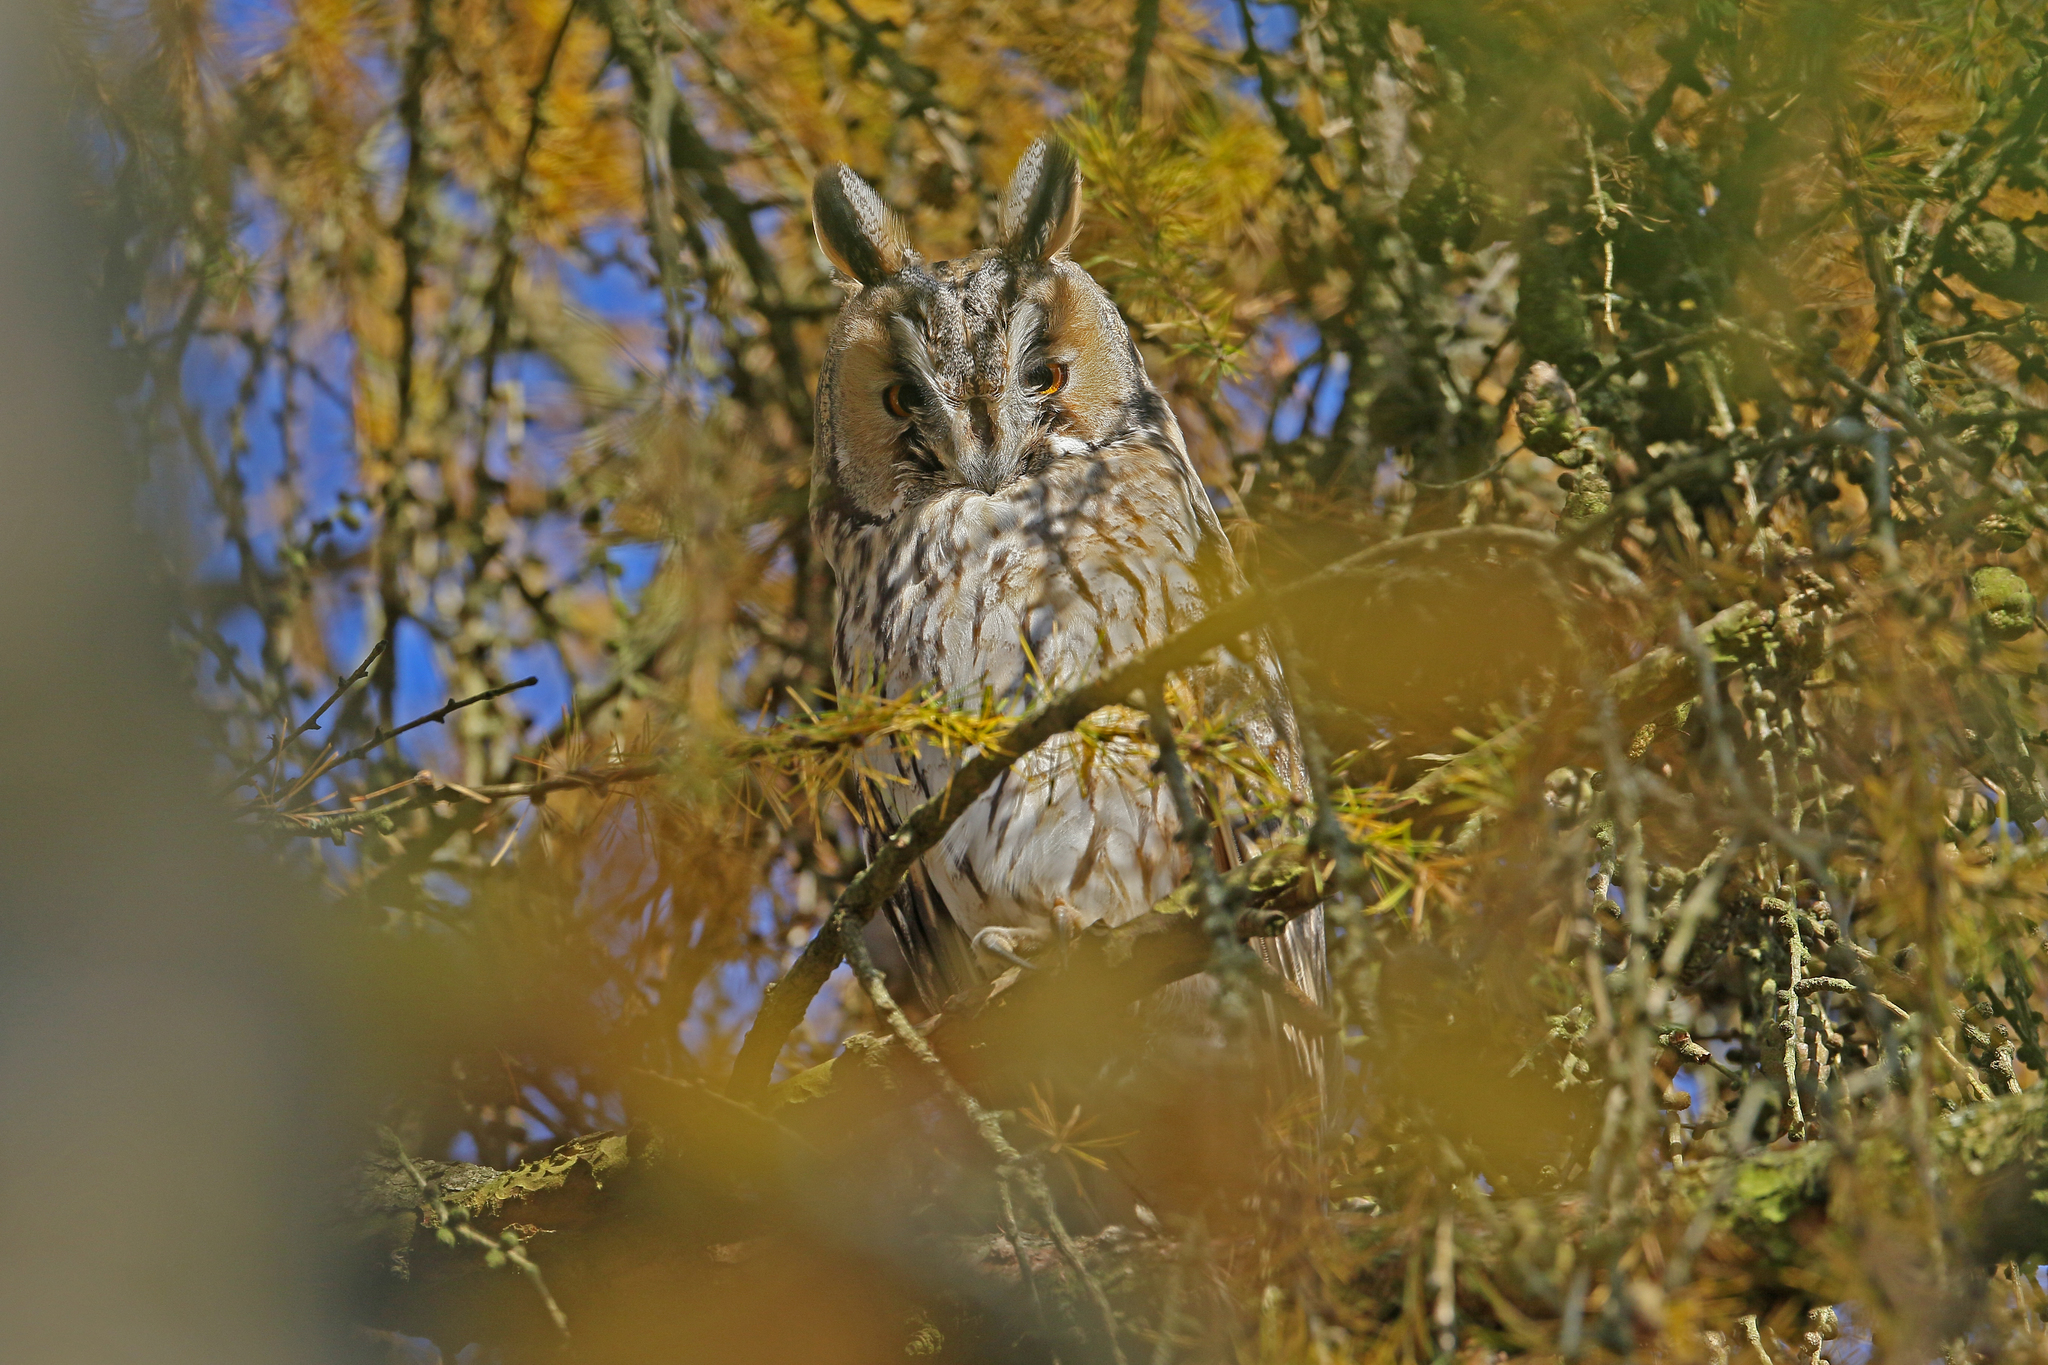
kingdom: Animalia
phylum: Chordata
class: Aves
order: Strigiformes
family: Strigidae
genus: Asio
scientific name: Asio otus
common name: Long-eared owl
